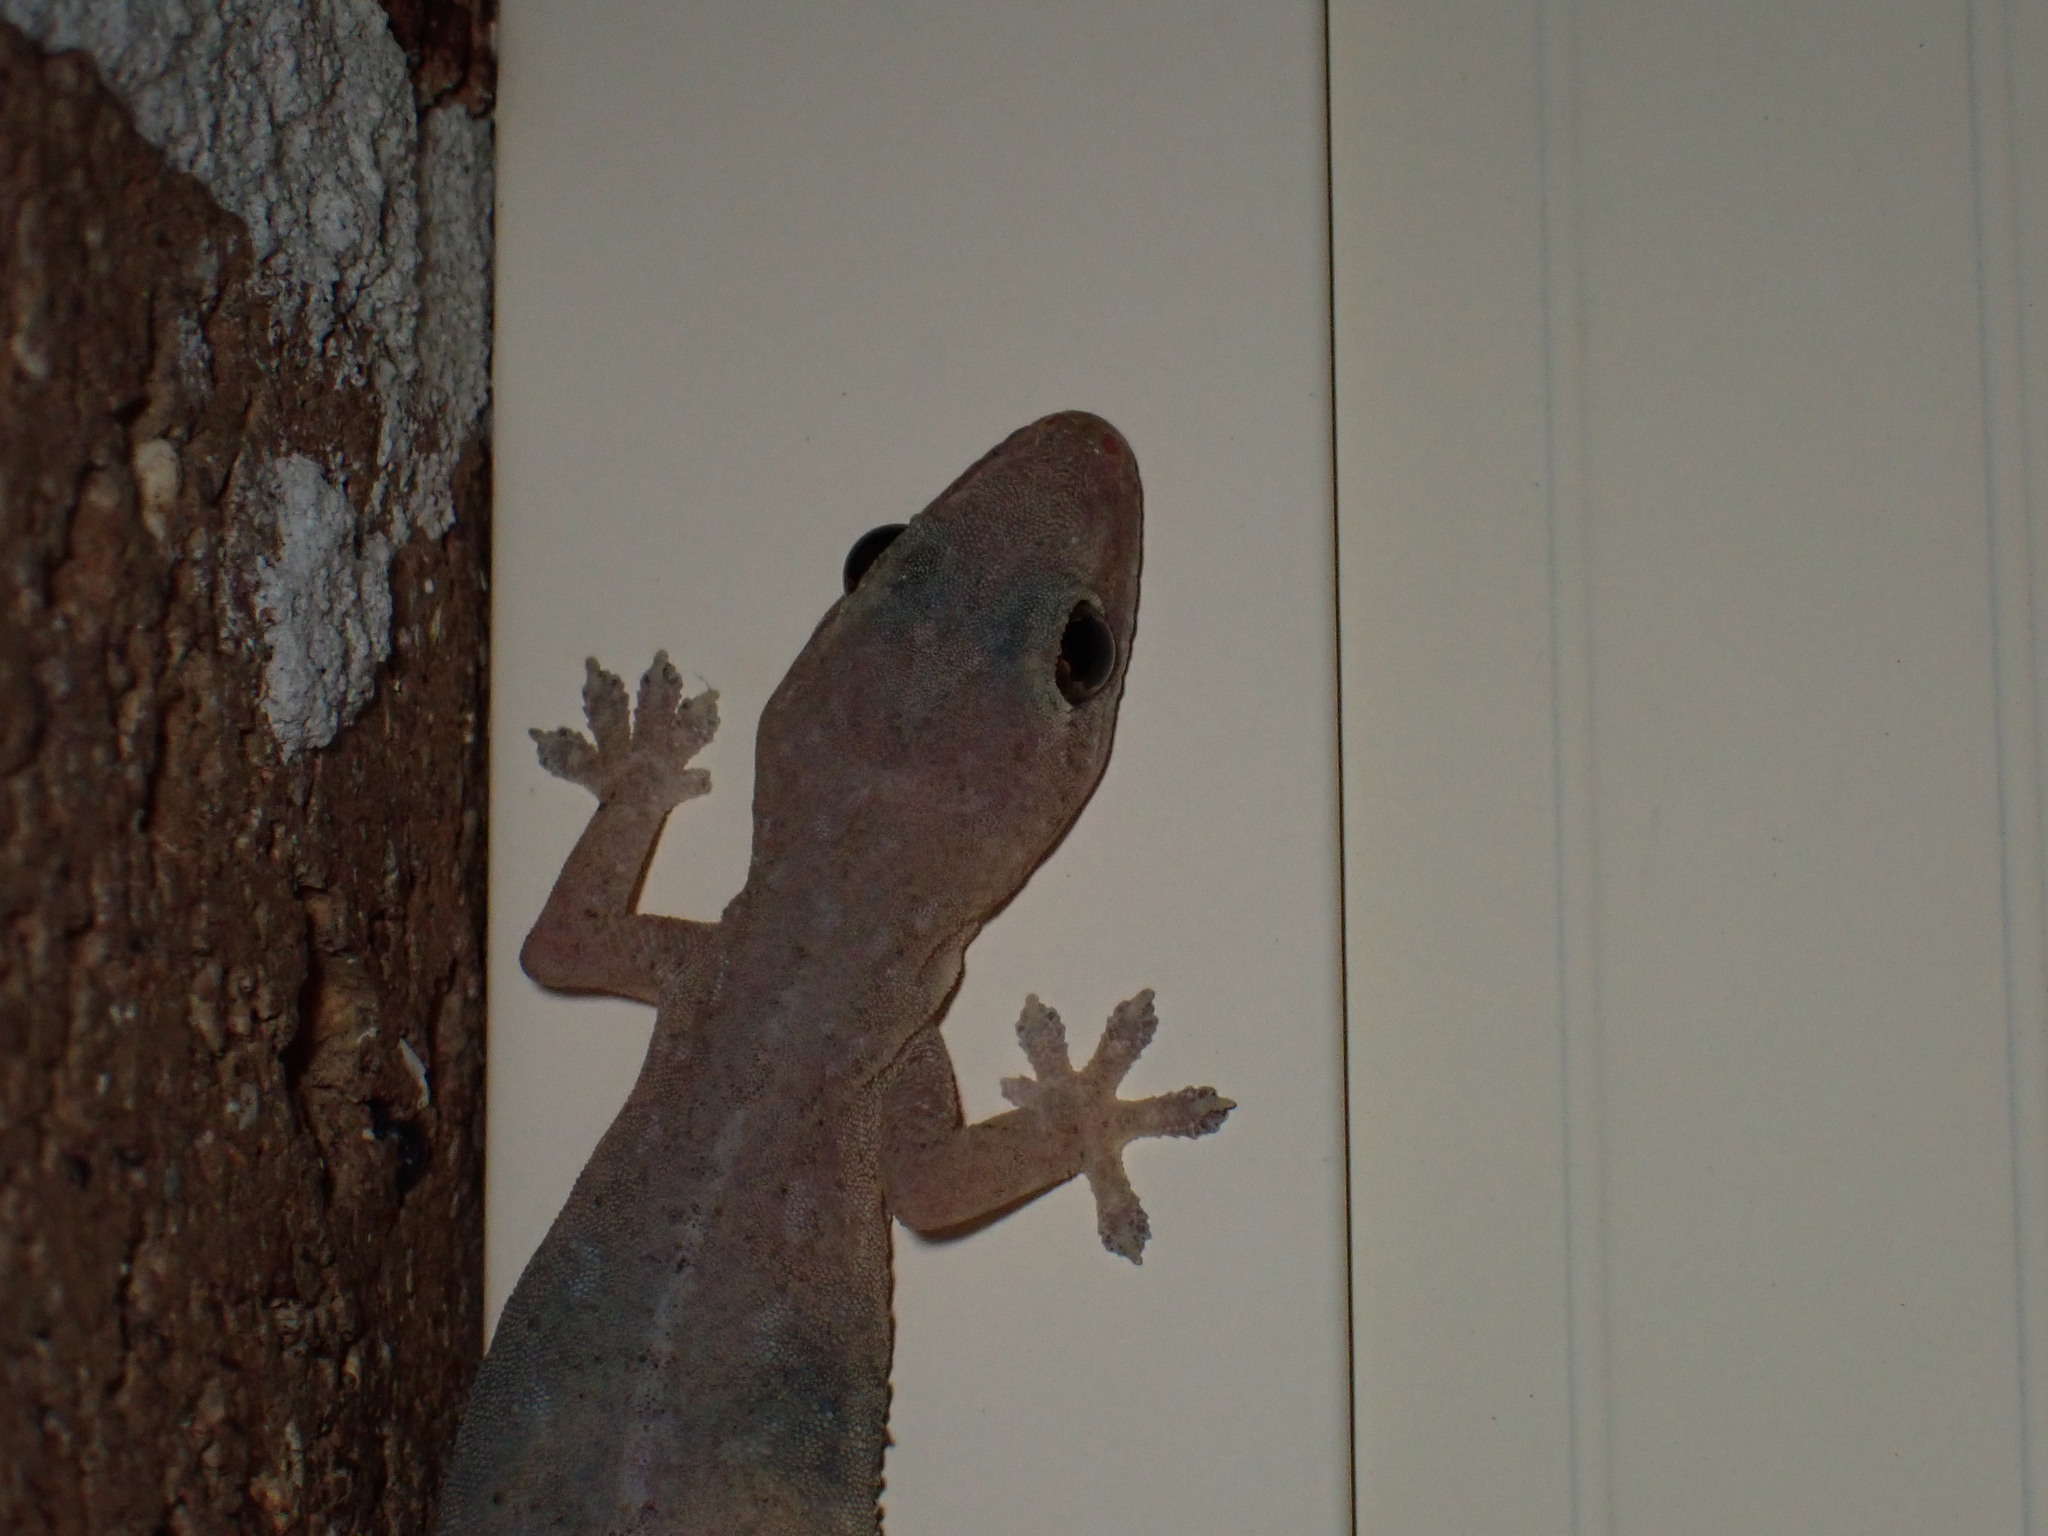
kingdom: Animalia
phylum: Chordata
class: Squamata
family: Gekkonidae
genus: Hemidactylus
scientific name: Hemidactylus frenatus
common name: Common house gecko
